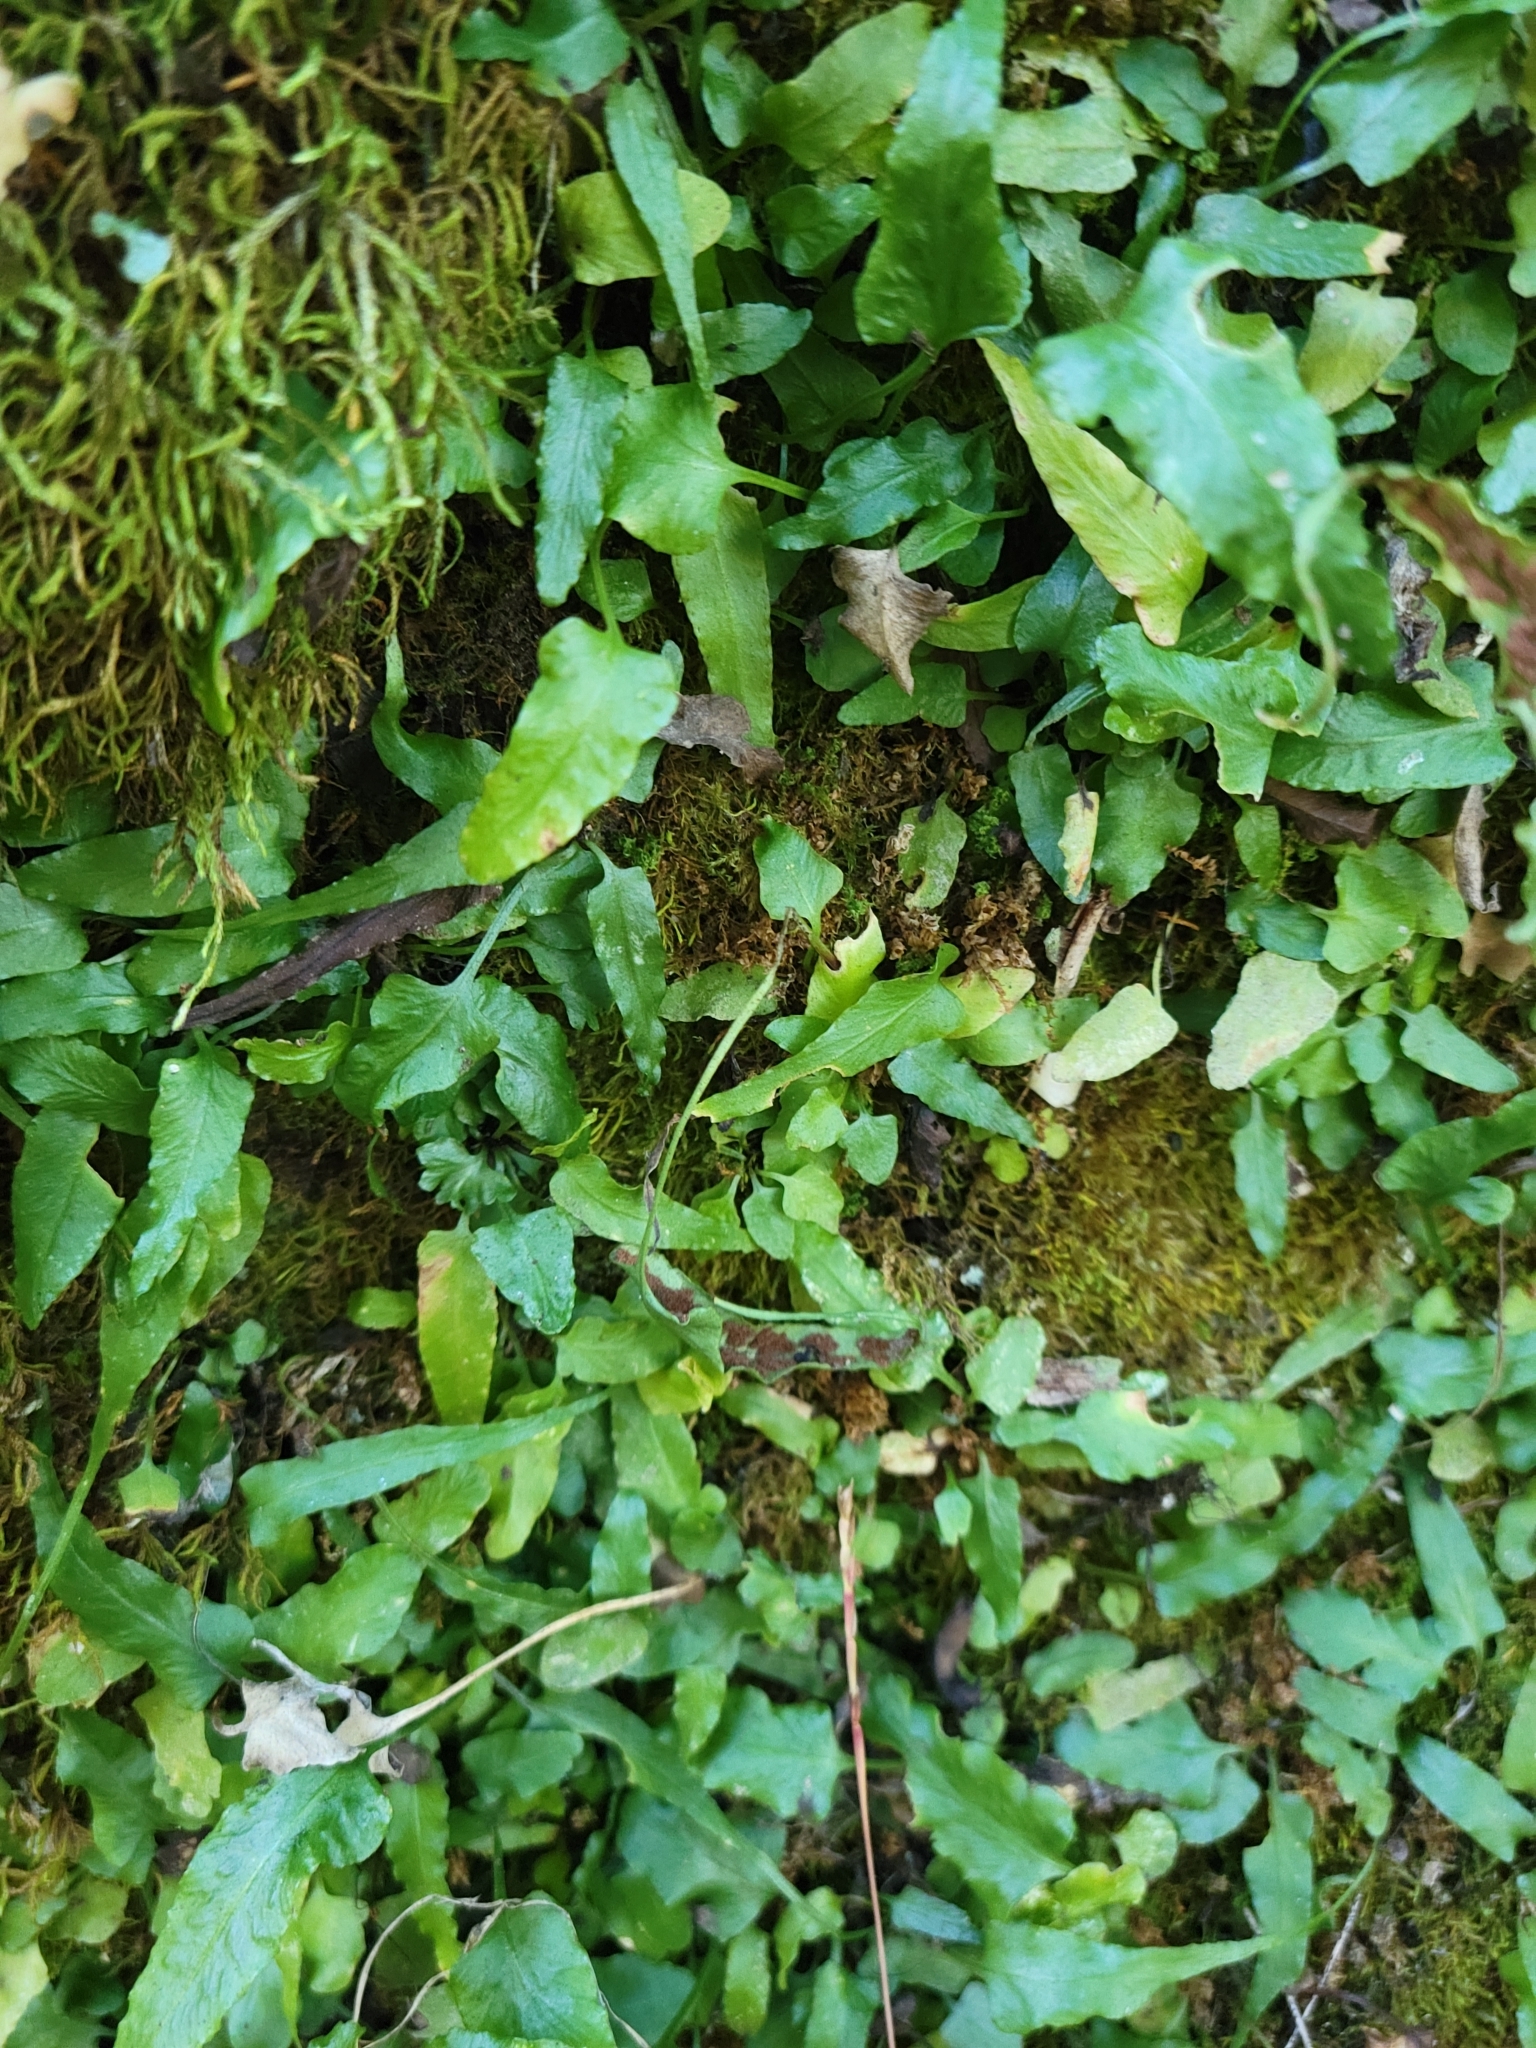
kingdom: Plantae
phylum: Tracheophyta
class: Polypodiopsida
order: Polypodiales
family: Aspleniaceae
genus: Asplenium
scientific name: Asplenium rhizophyllum
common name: Walking fern
